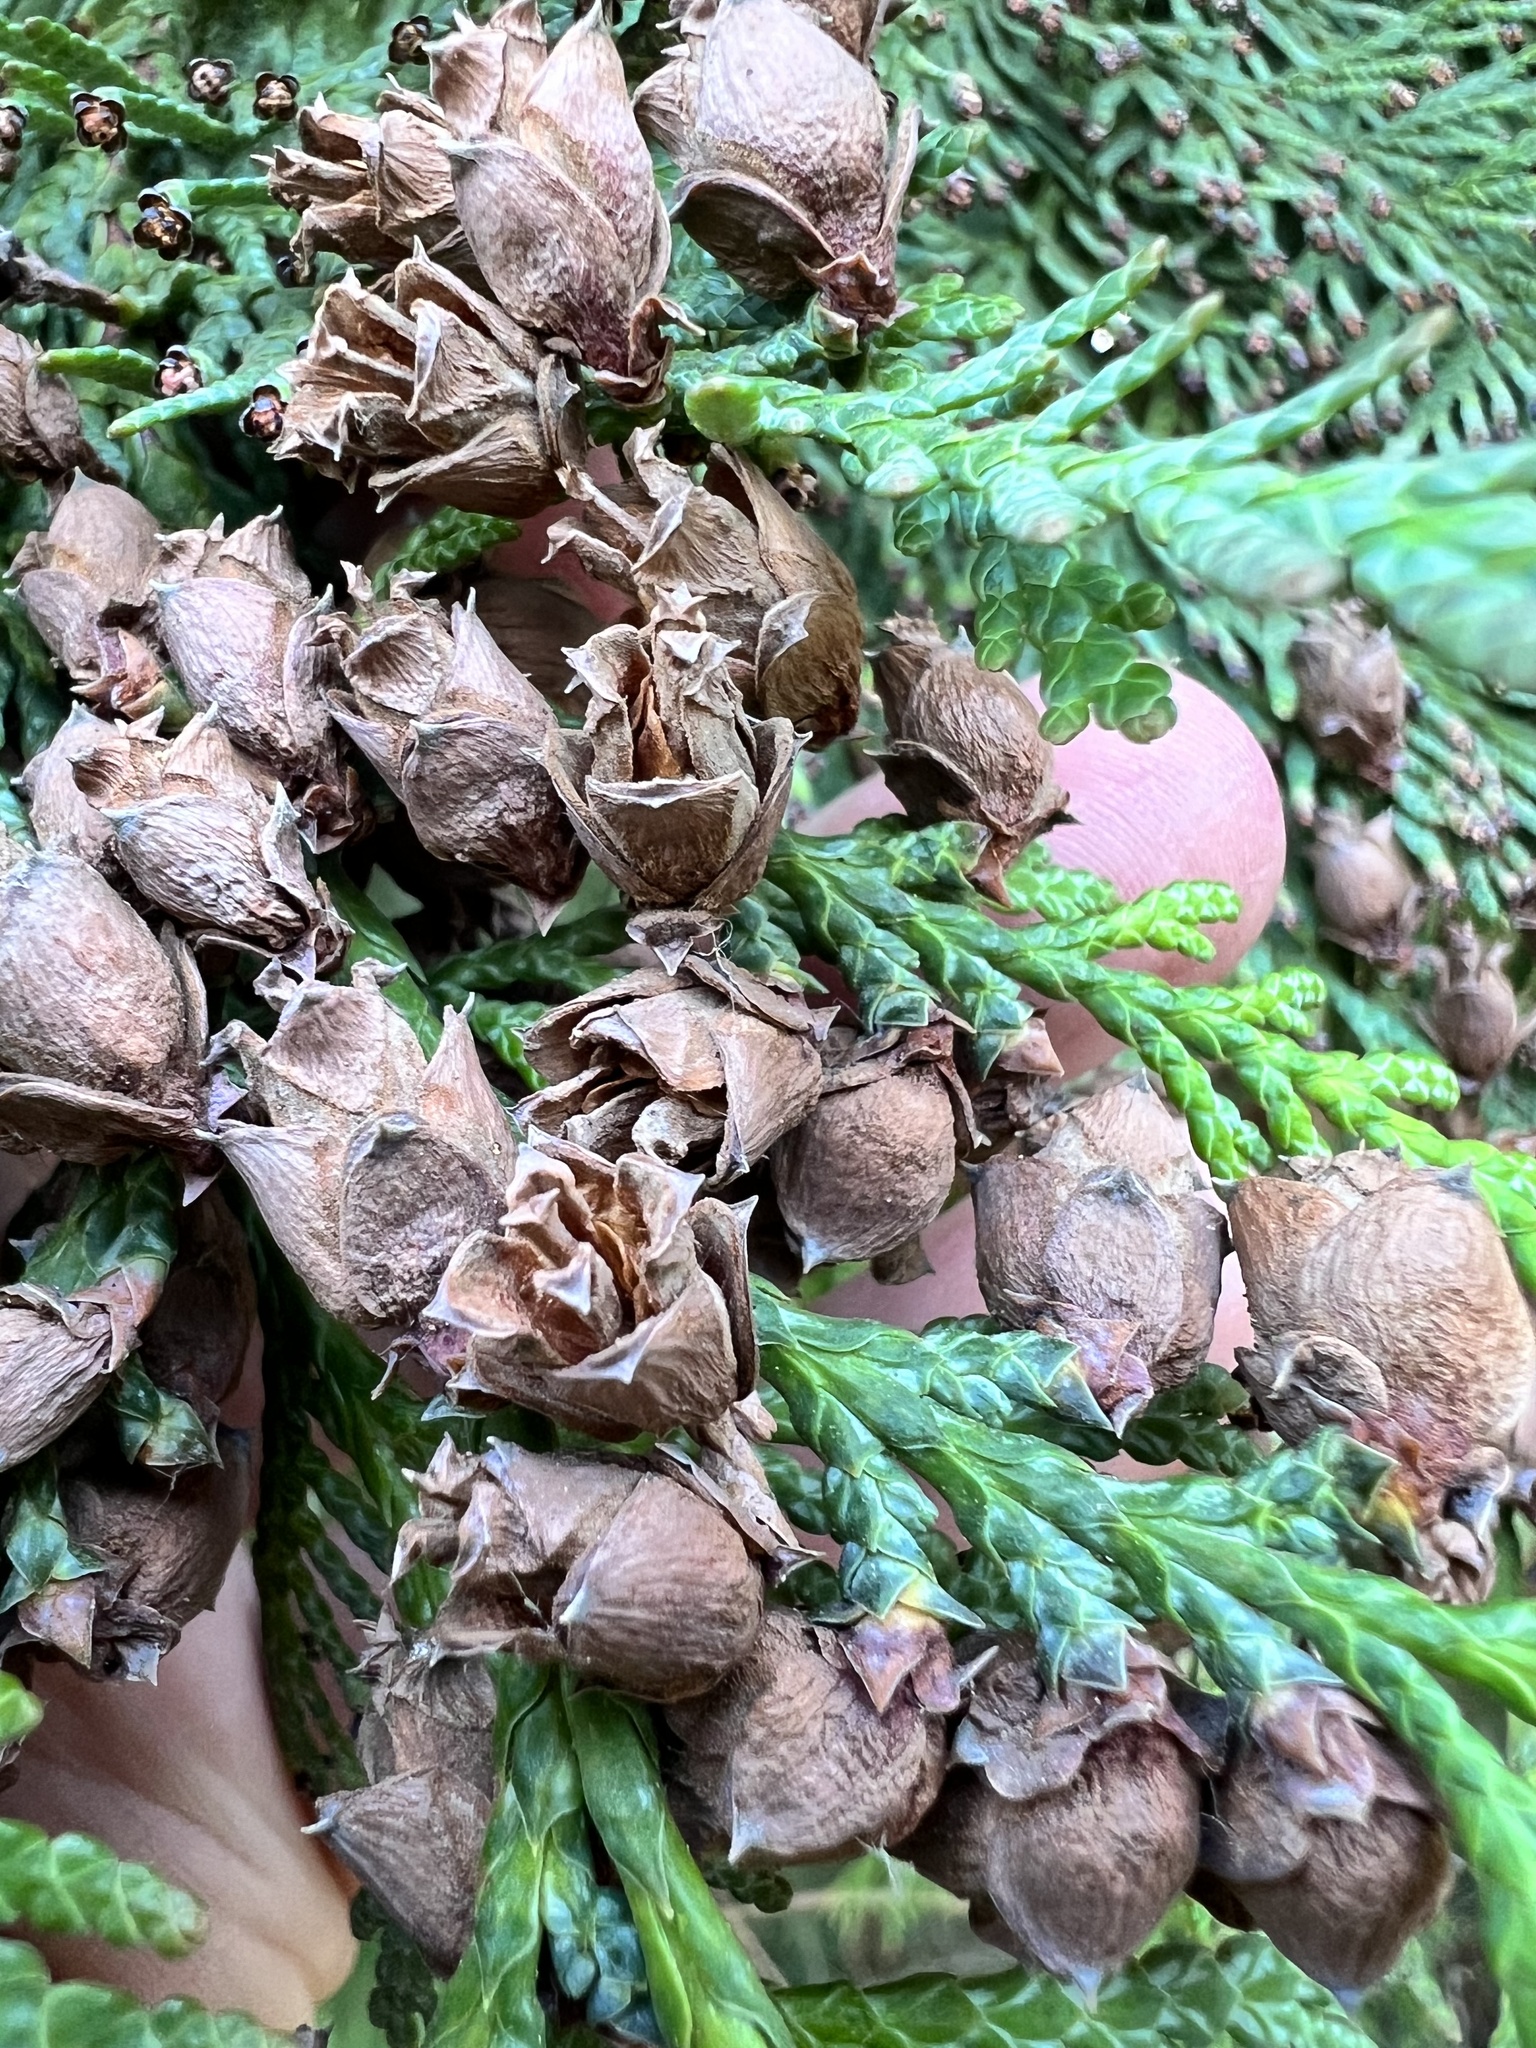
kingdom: Plantae
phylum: Tracheophyta
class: Pinopsida
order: Pinales
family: Cupressaceae
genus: Thuja
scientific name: Thuja plicata
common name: Western red-cedar
